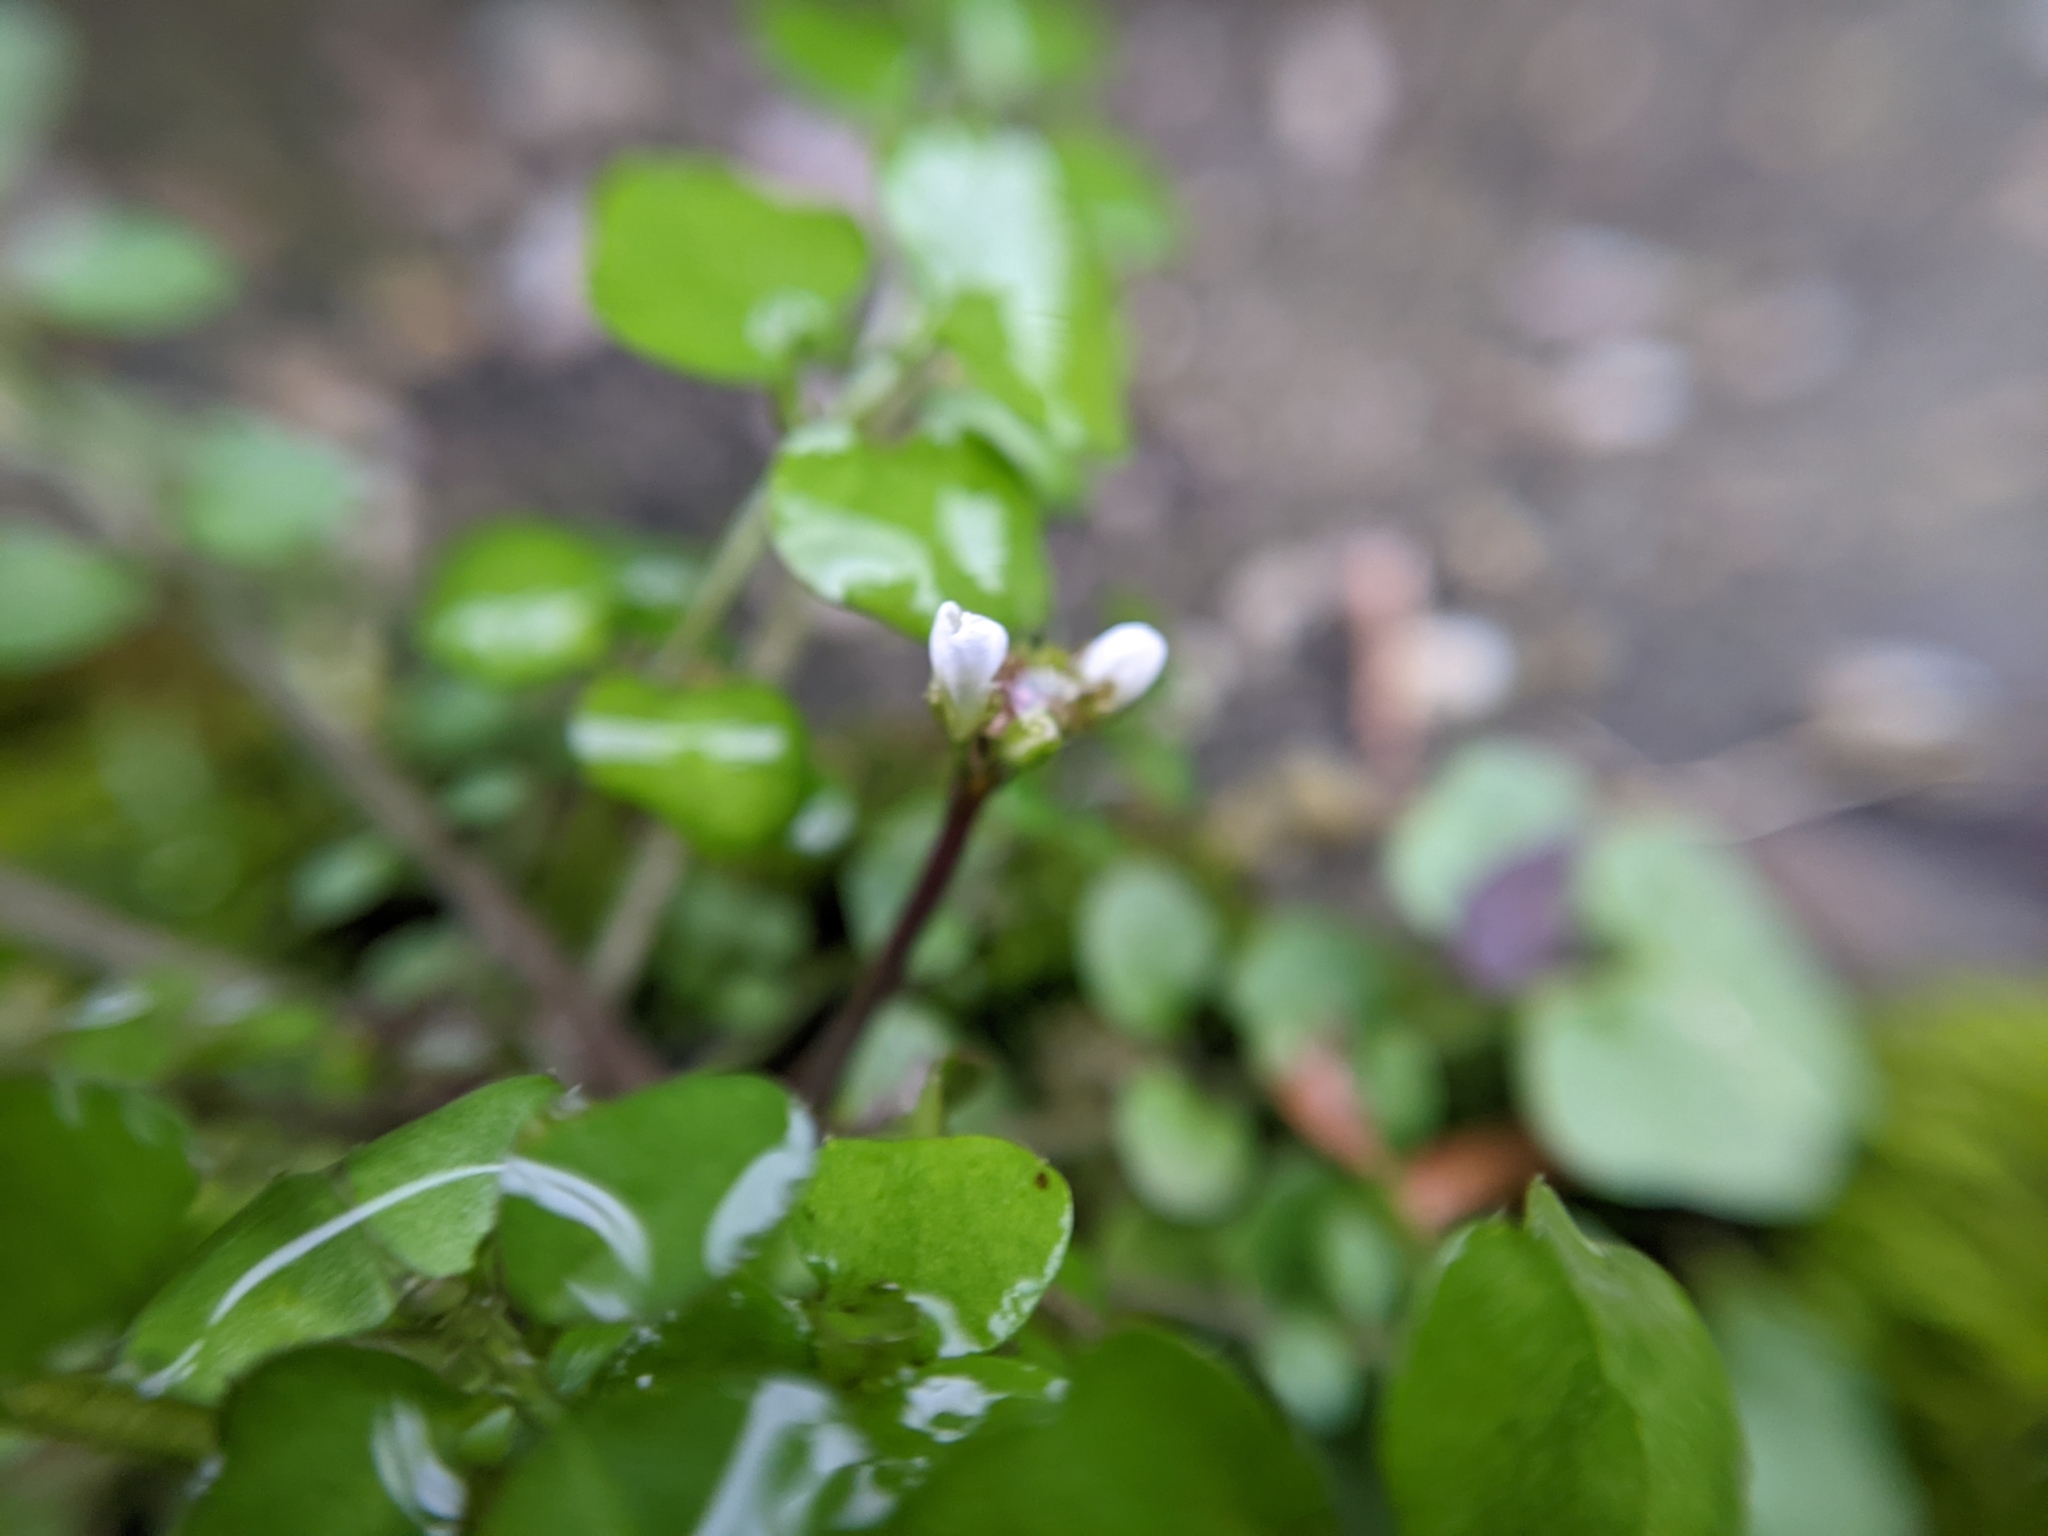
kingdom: Plantae
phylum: Tracheophyta
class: Magnoliopsida
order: Brassicales
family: Brassicaceae
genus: Cardamine
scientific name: Cardamine hirsuta
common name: Hairy bittercress
